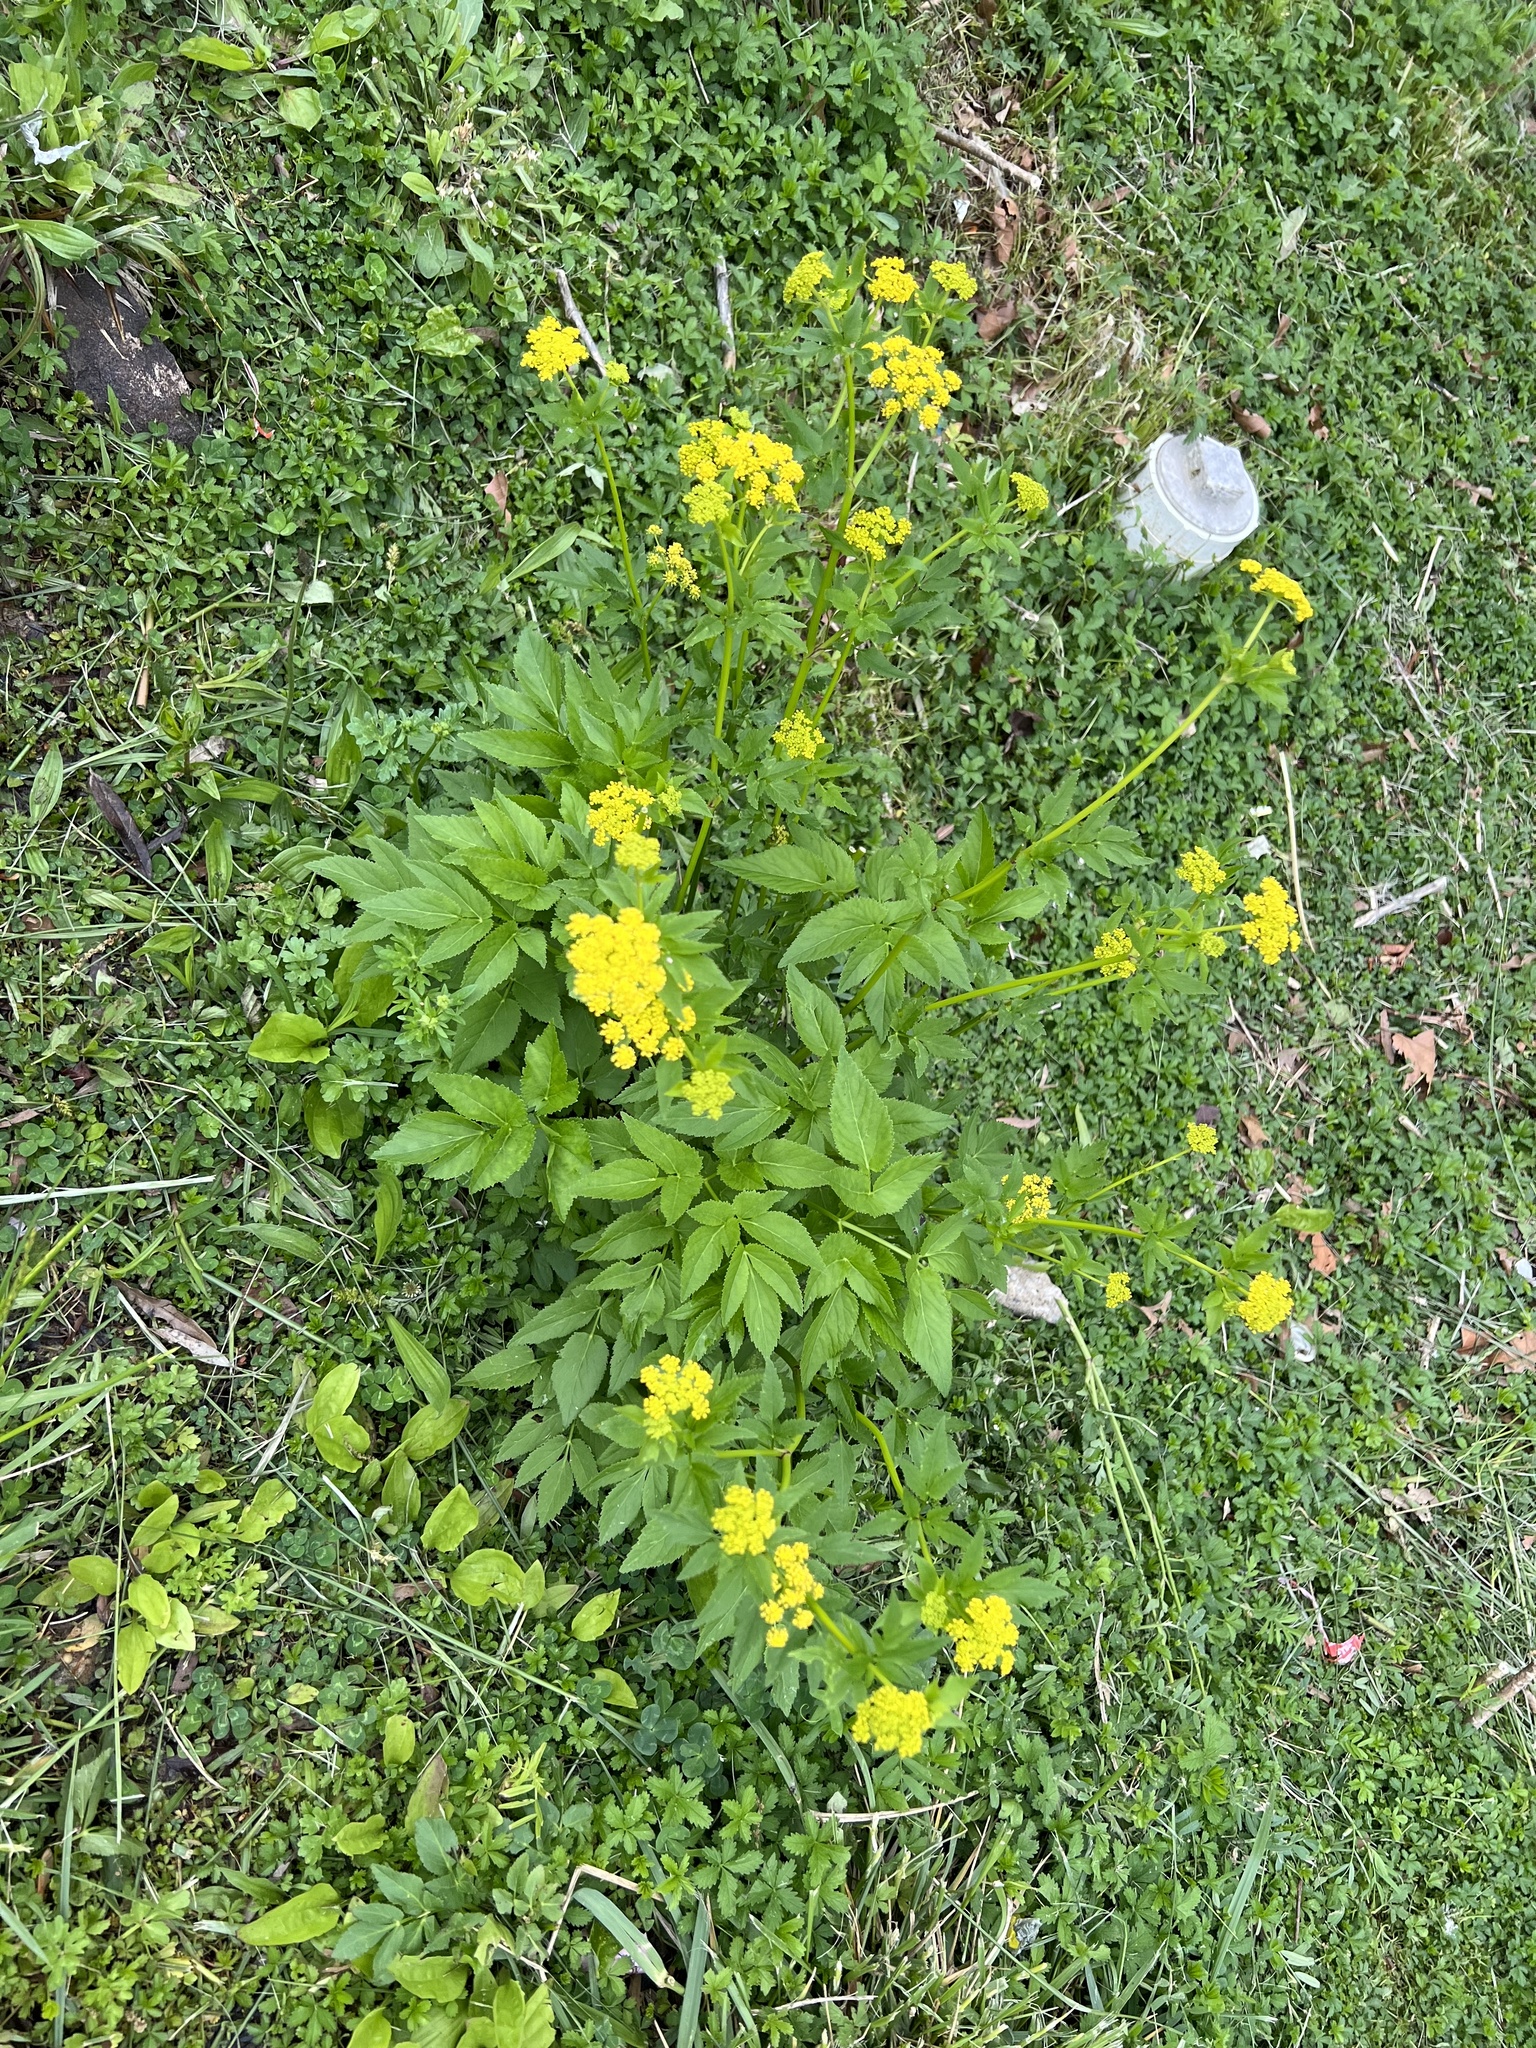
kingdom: Plantae
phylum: Tracheophyta
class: Magnoliopsida
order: Apiales
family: Apiaceae
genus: Zizia
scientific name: Zizia aurea
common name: Golden alexanders
